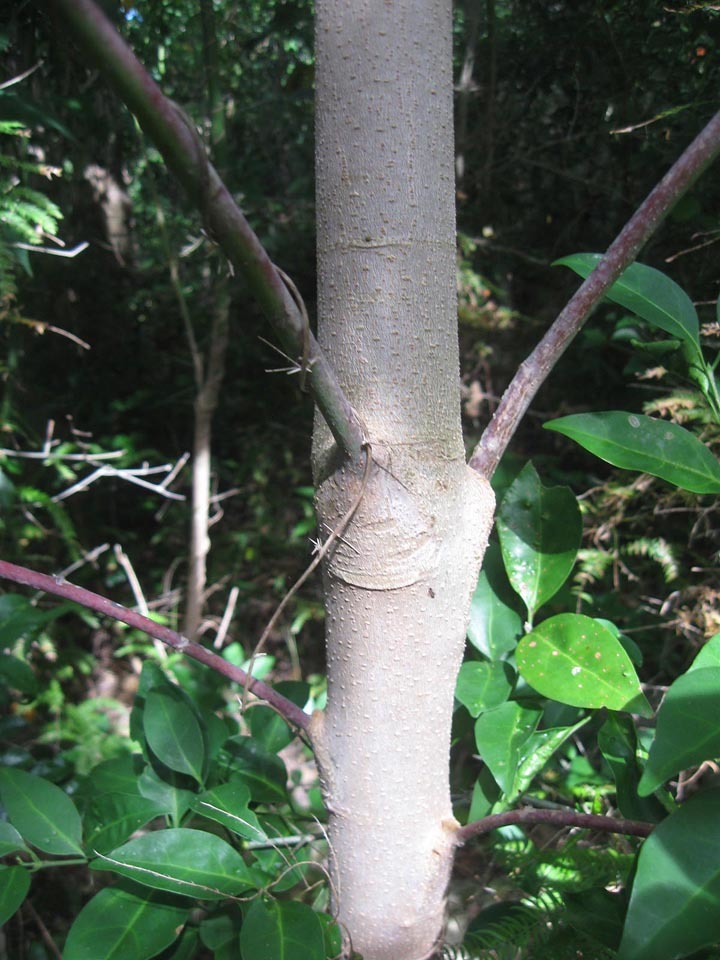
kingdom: Plantae
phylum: Tracheophyta
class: Magnoliopsida
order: Malpighiales
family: Euphorbiaceae
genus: Homalanthus
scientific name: Homalanthus populifolius
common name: Queensland poplar
